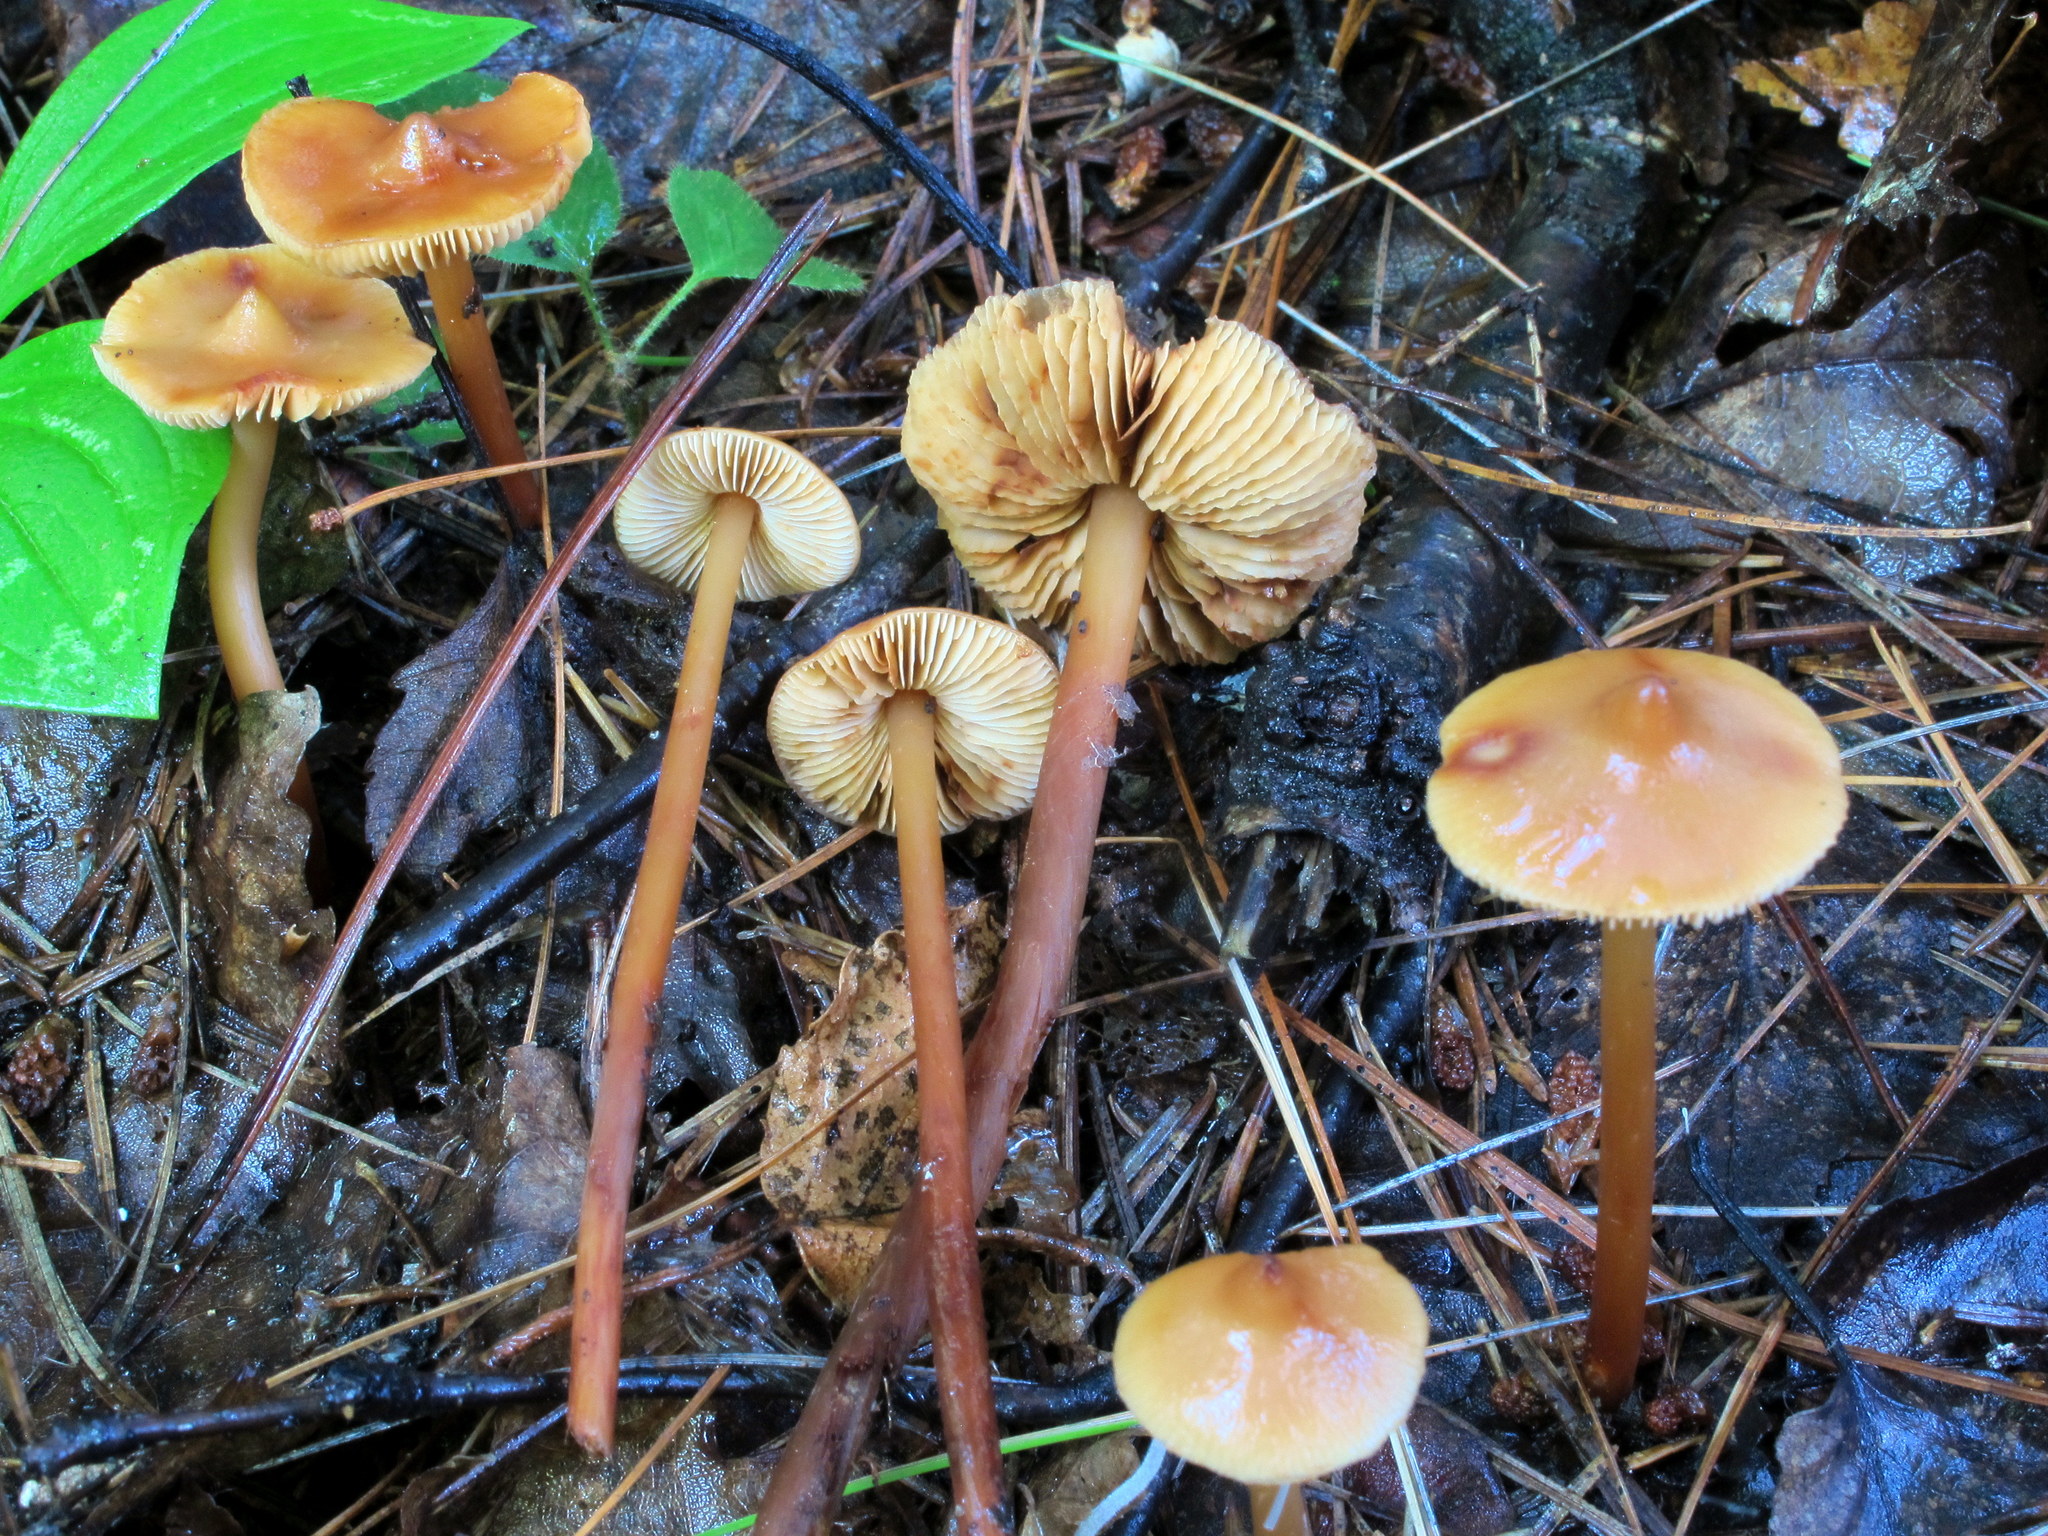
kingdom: Fungi
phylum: Basidiomycota
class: Agaricomycetes
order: Agaricales
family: Hymenogastraceae
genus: Phaeocollybia
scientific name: Phaeocollybia christinae
